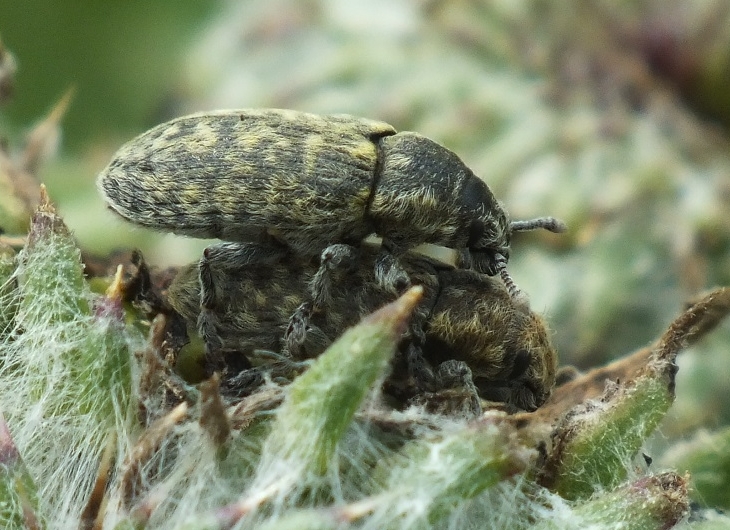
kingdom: Animalia
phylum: Arthropoda
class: Insecta
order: Coleoptera
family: Curculionidae
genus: Rhinocyllus
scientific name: Rhinocyllus conicus
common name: Weevil
